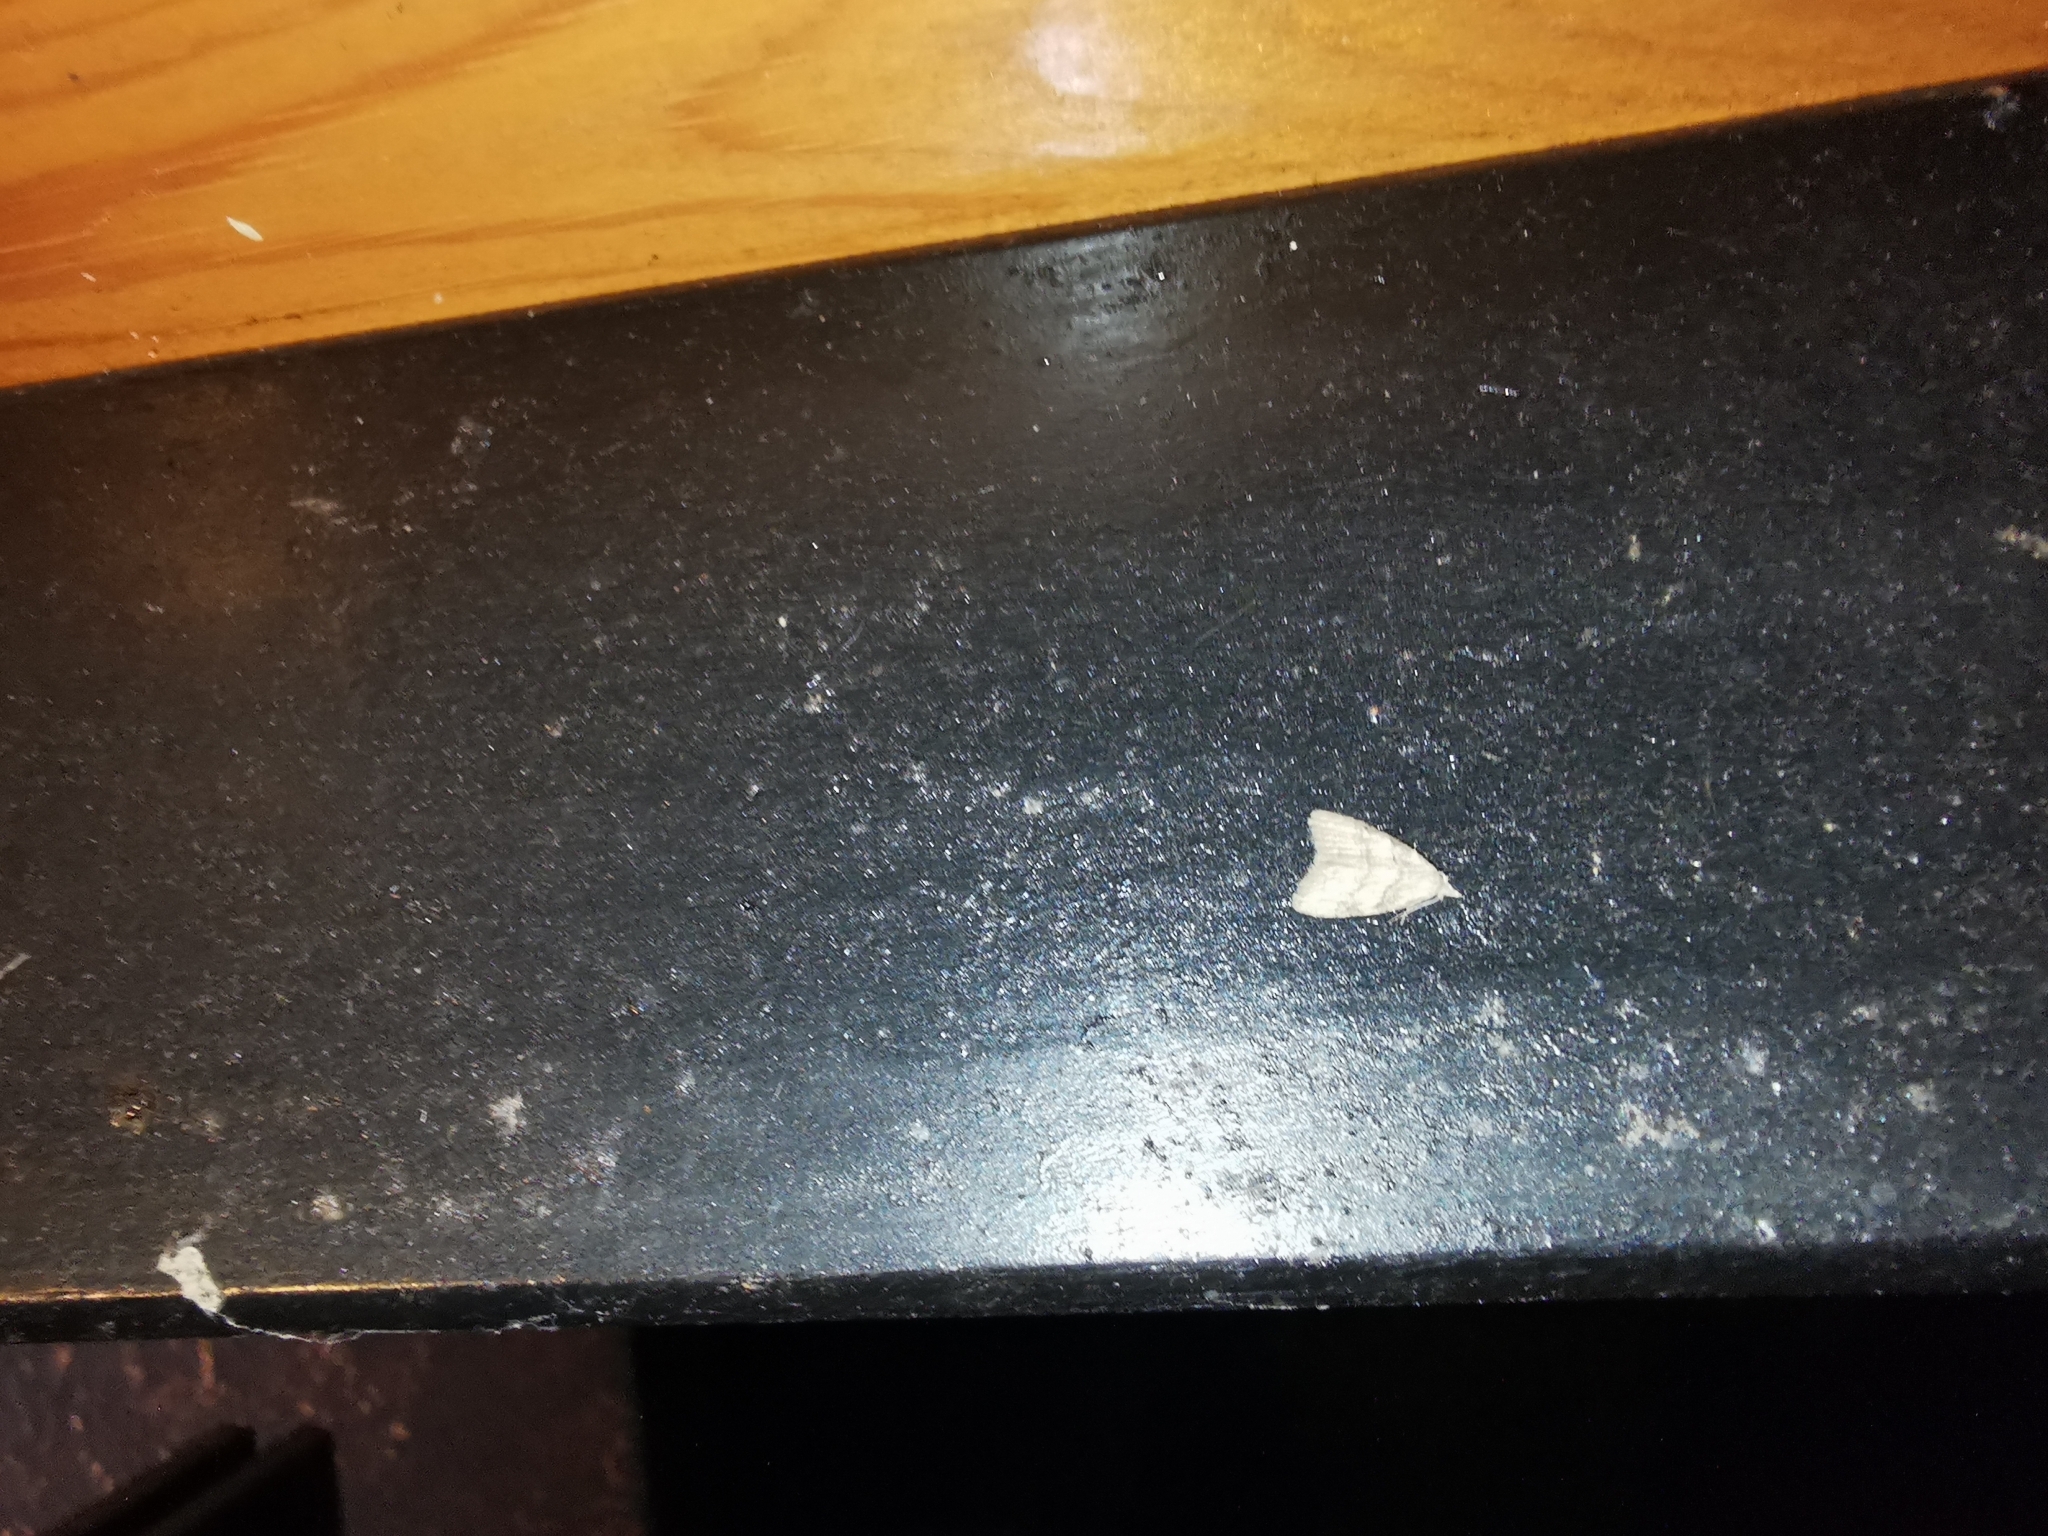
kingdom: Animalia
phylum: Arthropoda
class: Insecta
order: Lepidoptera
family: Nolidae
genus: Nola
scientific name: Nola harouni
